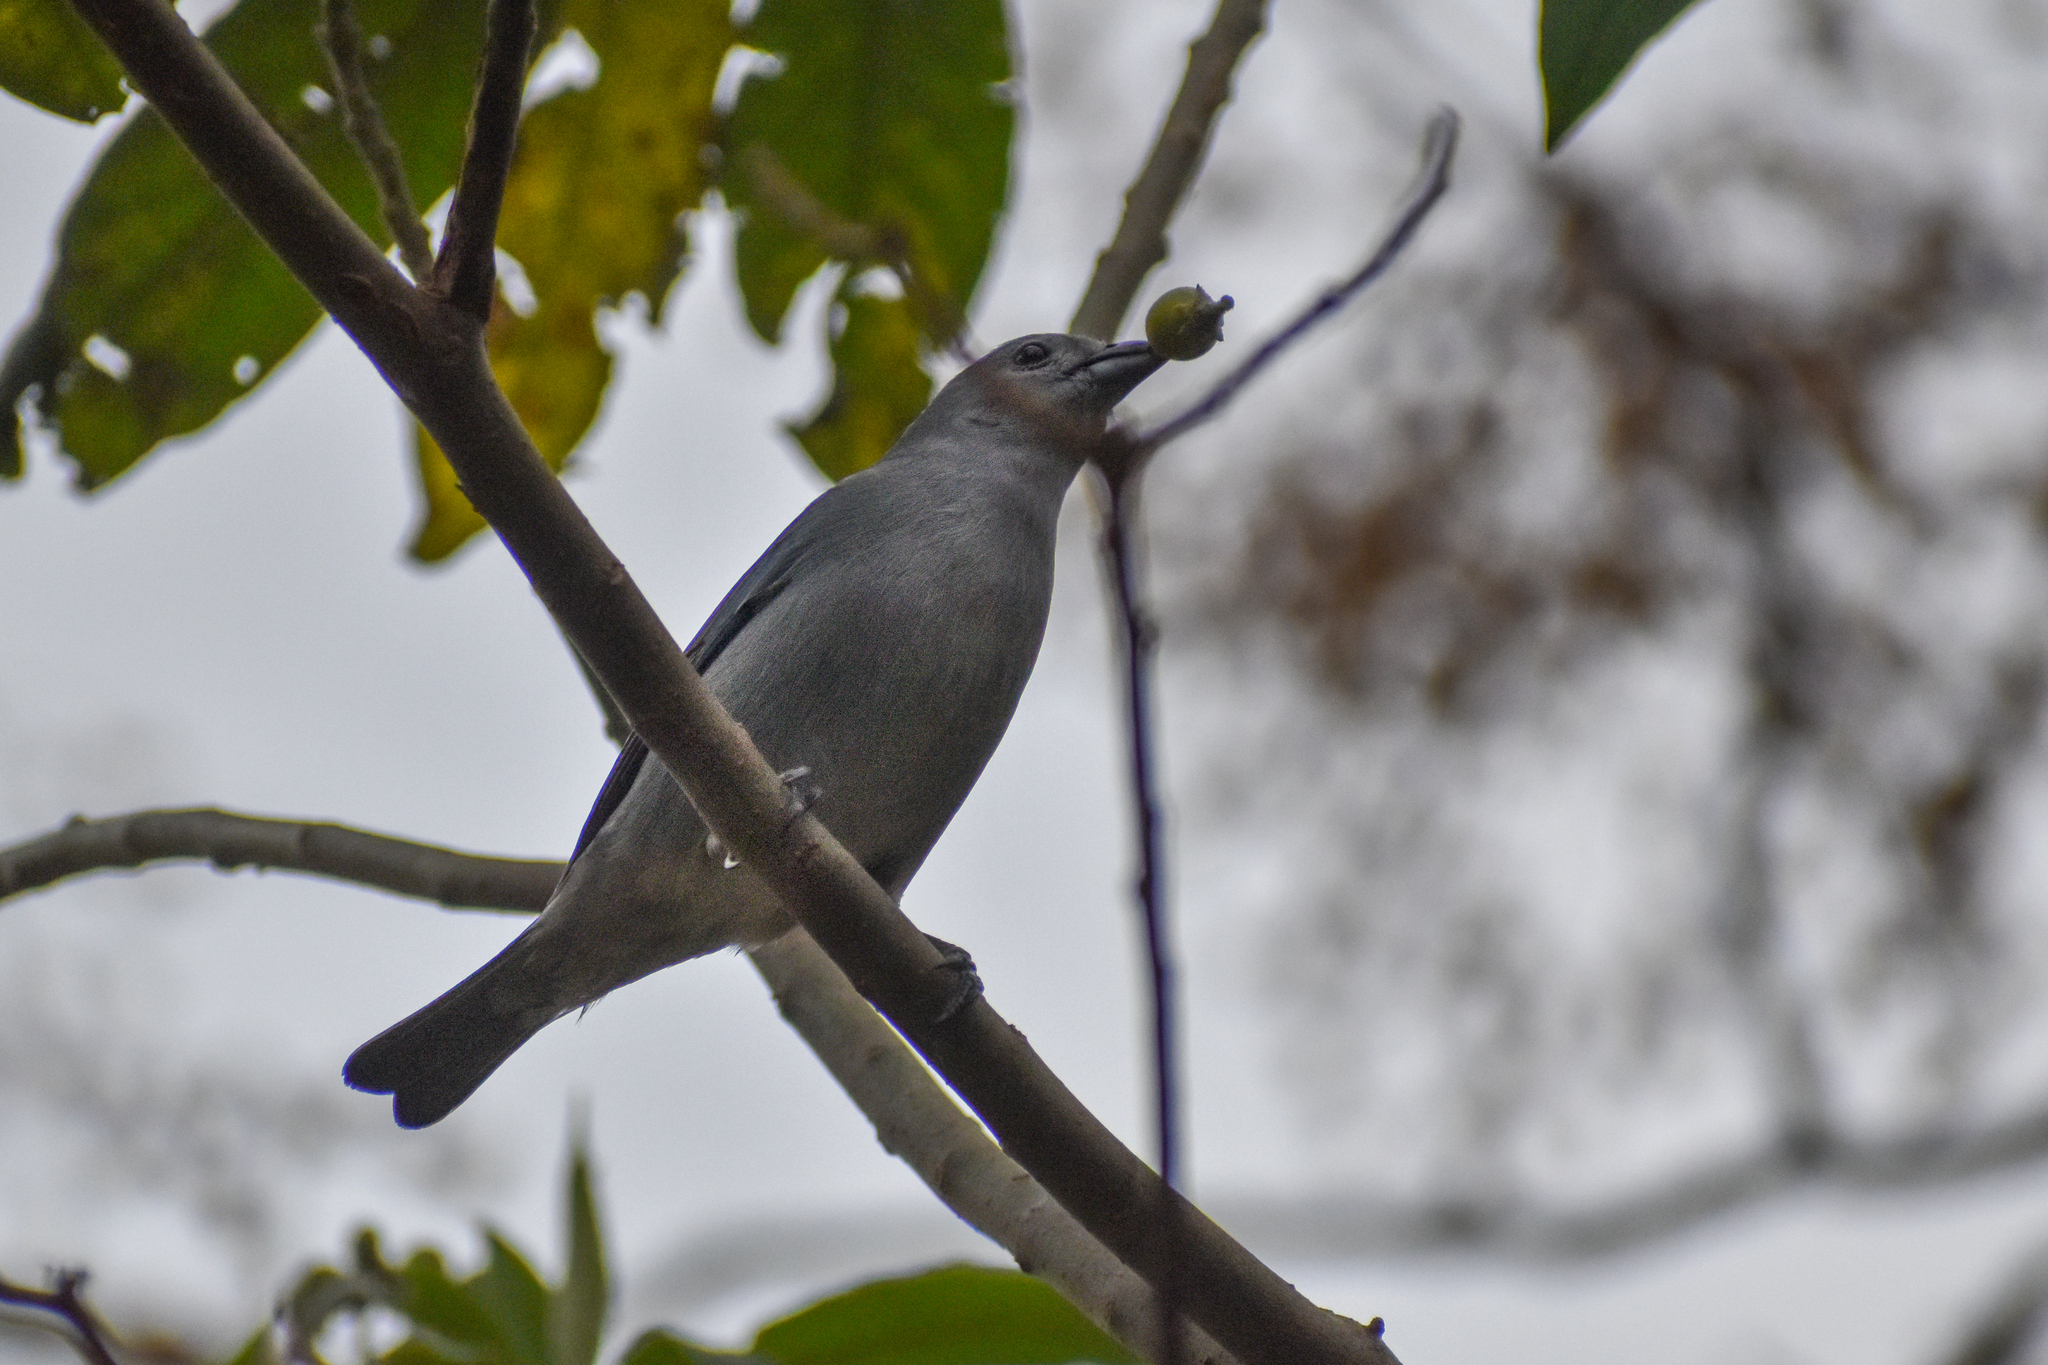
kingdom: Animalia
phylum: Chordata
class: Aves
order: Passeriformes
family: Thraupidae
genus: Thraupis
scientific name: Thraupis sayaca
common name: Sayaca tanager
